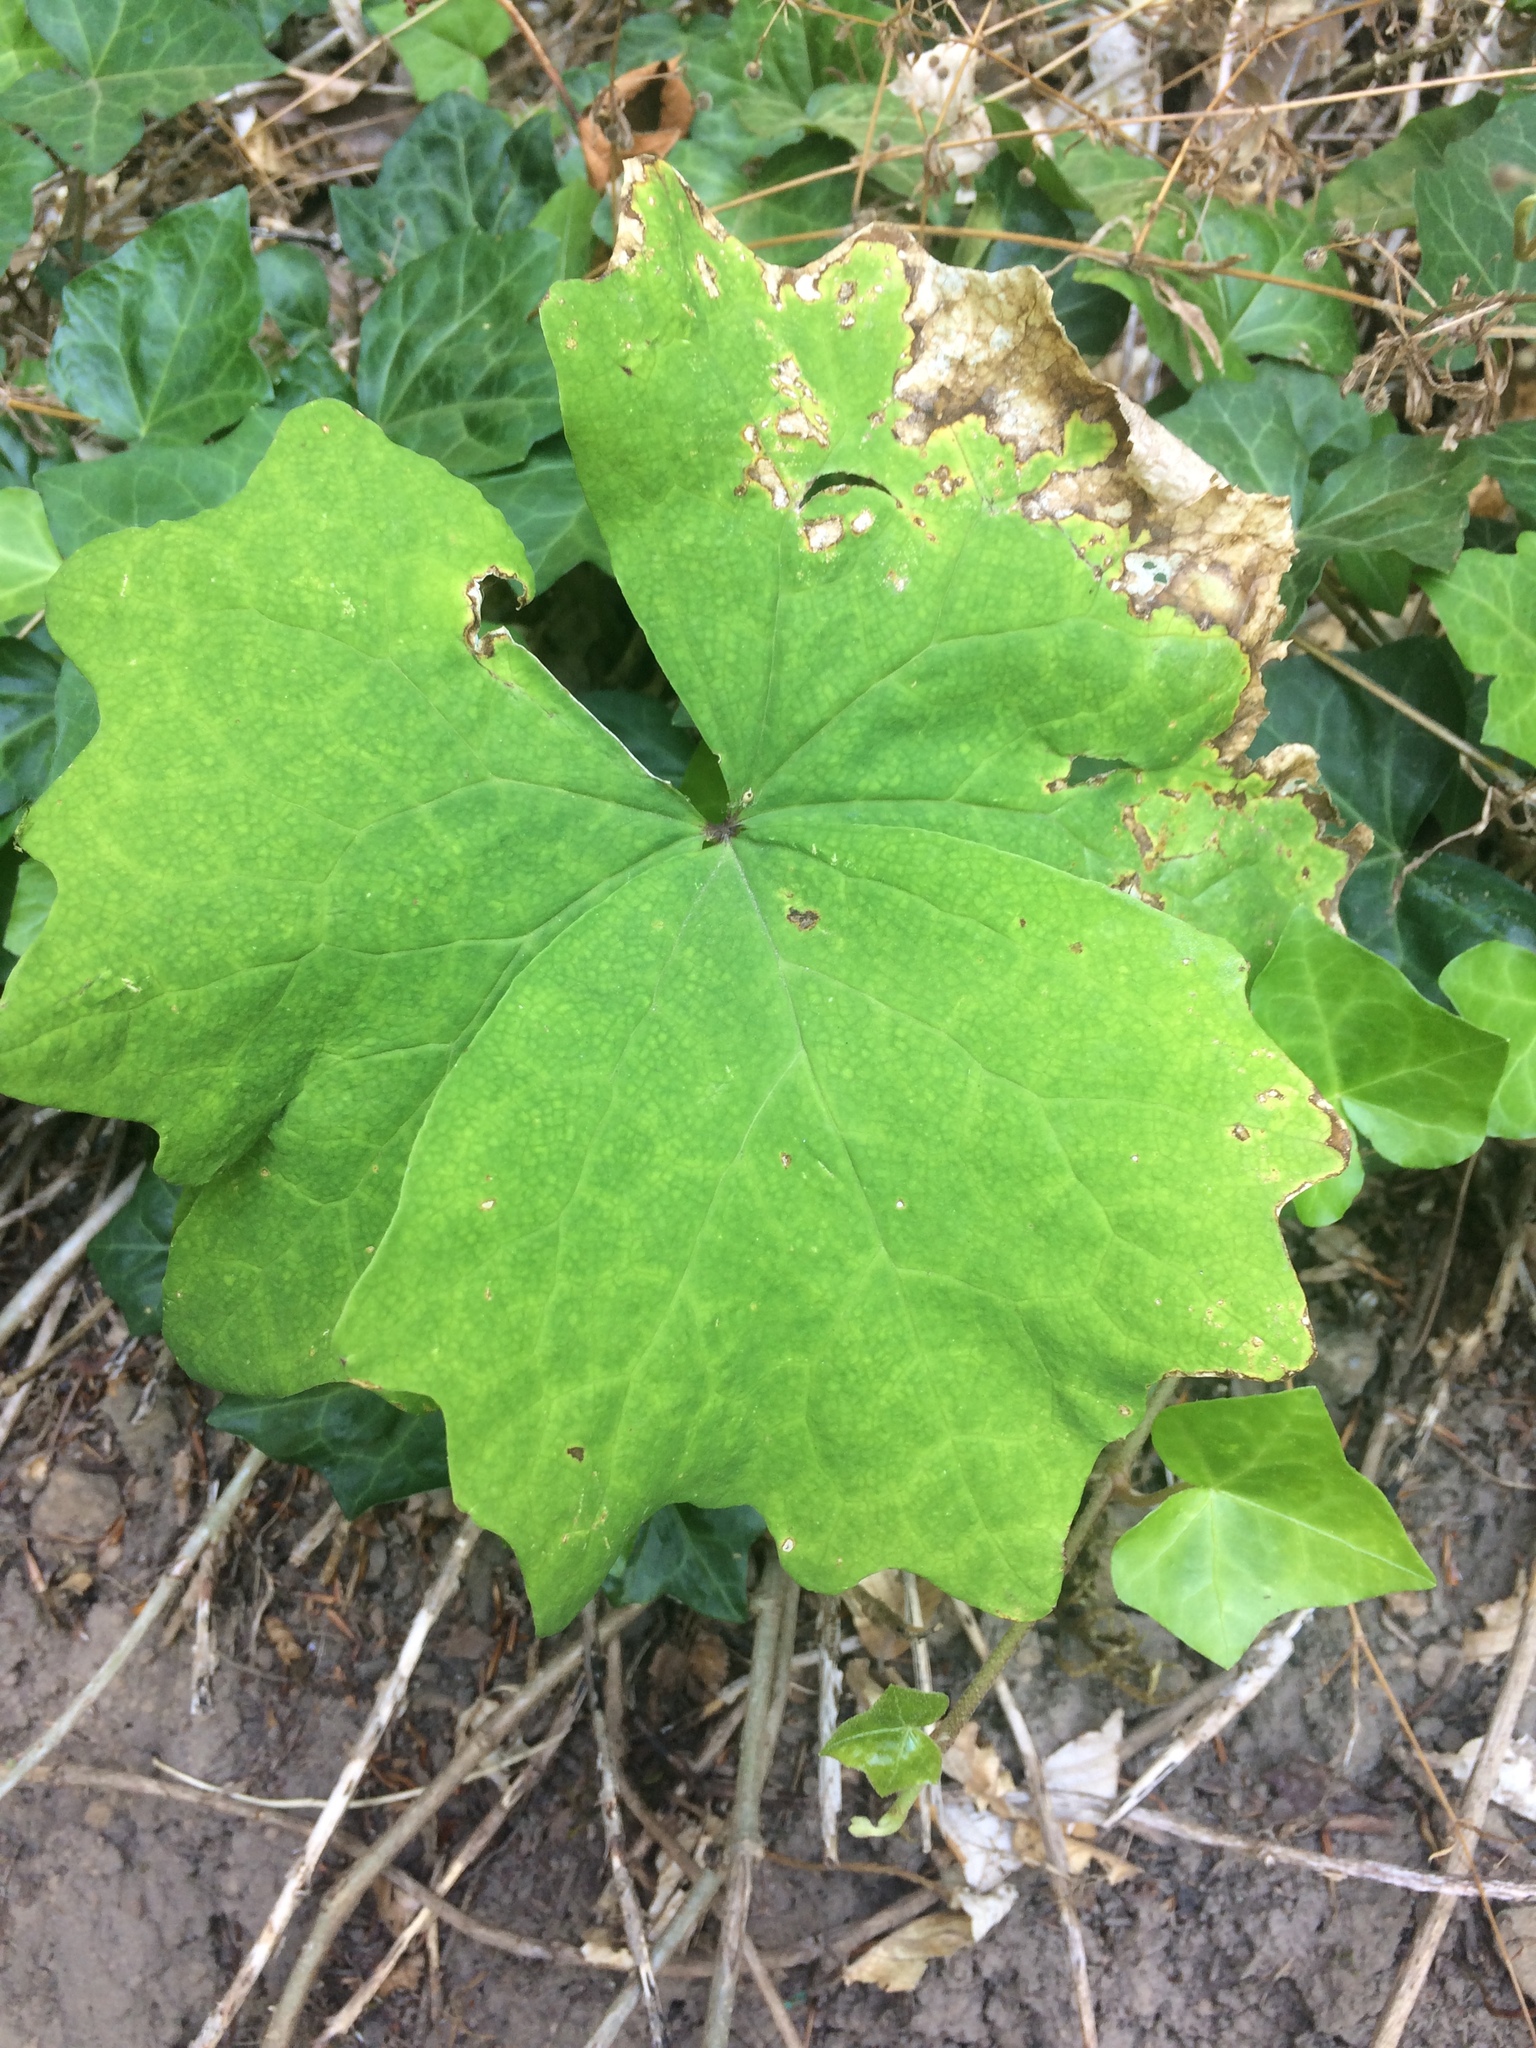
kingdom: Plantae
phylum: Tracheophyta
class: Magnoliopsida
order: Ranunculales
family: Berberidaceae
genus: Achlys
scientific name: Achlys triphylla
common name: Vanilla-leaf
